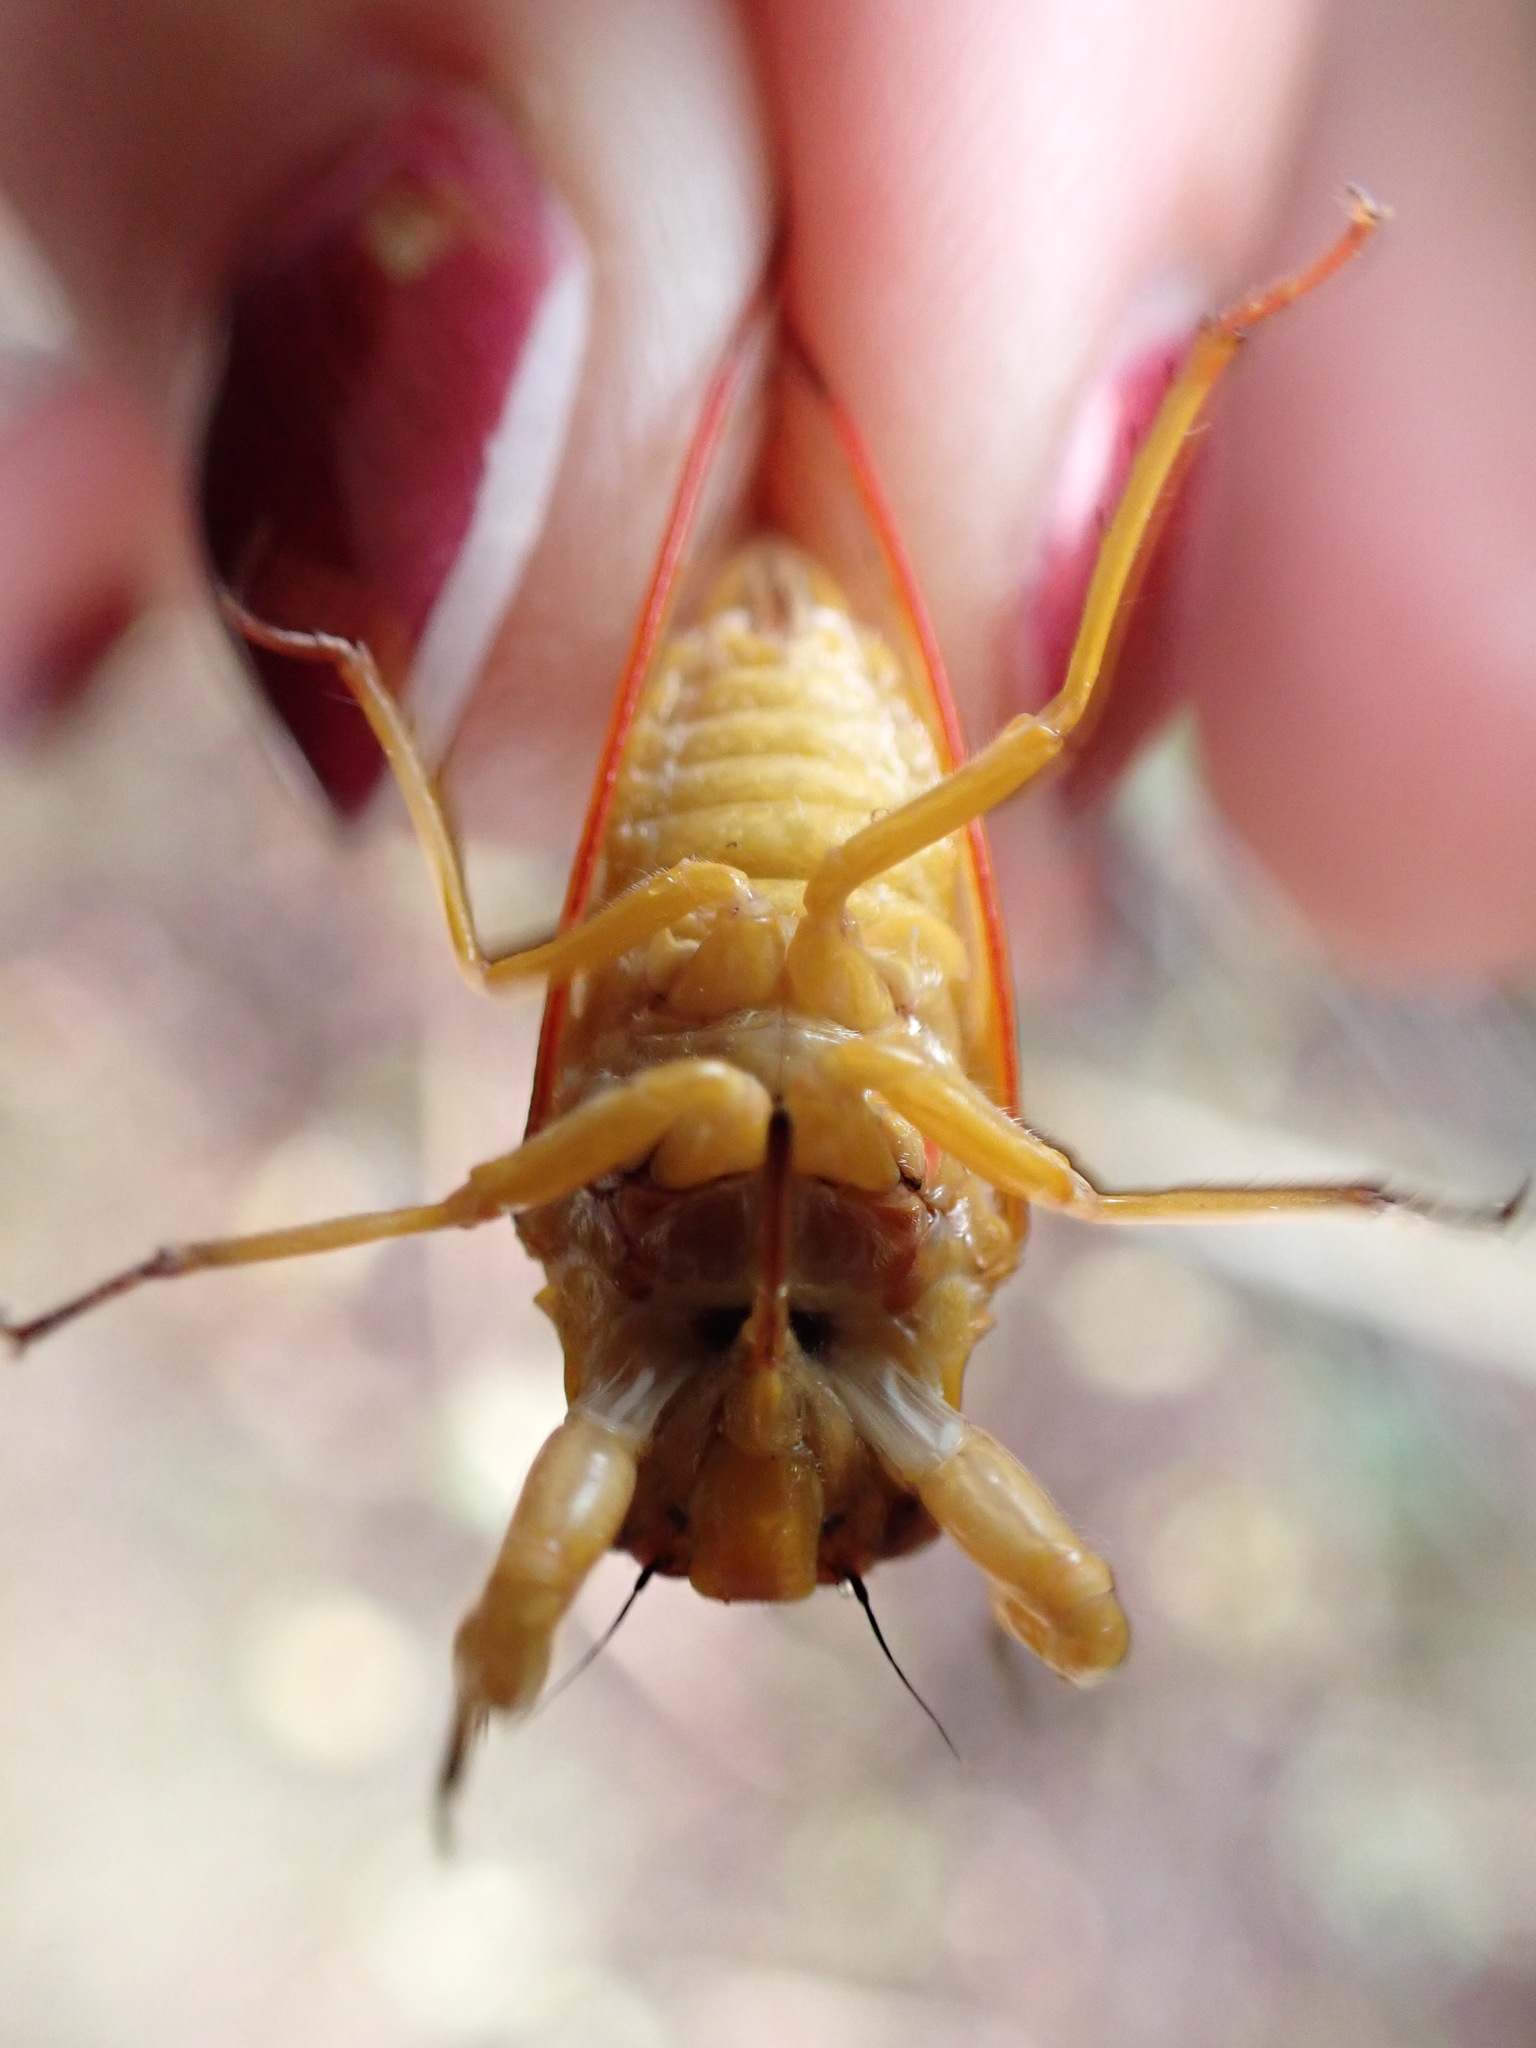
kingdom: Animalia
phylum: Arthropoda
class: Insecta
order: Hemiptera
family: Cicadidae
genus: Kikihia
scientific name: Kikihia ochrina
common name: April green cicada
